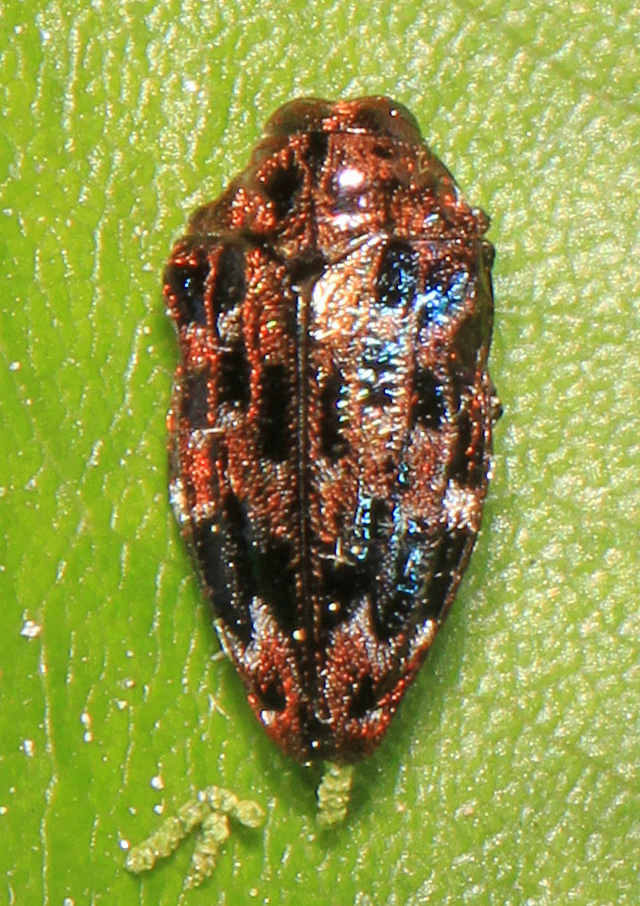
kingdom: Animalia
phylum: Arthropoda
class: Insecta
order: Coleoptera
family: Buprestidae
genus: Brachys
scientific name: Brachys ovatus
